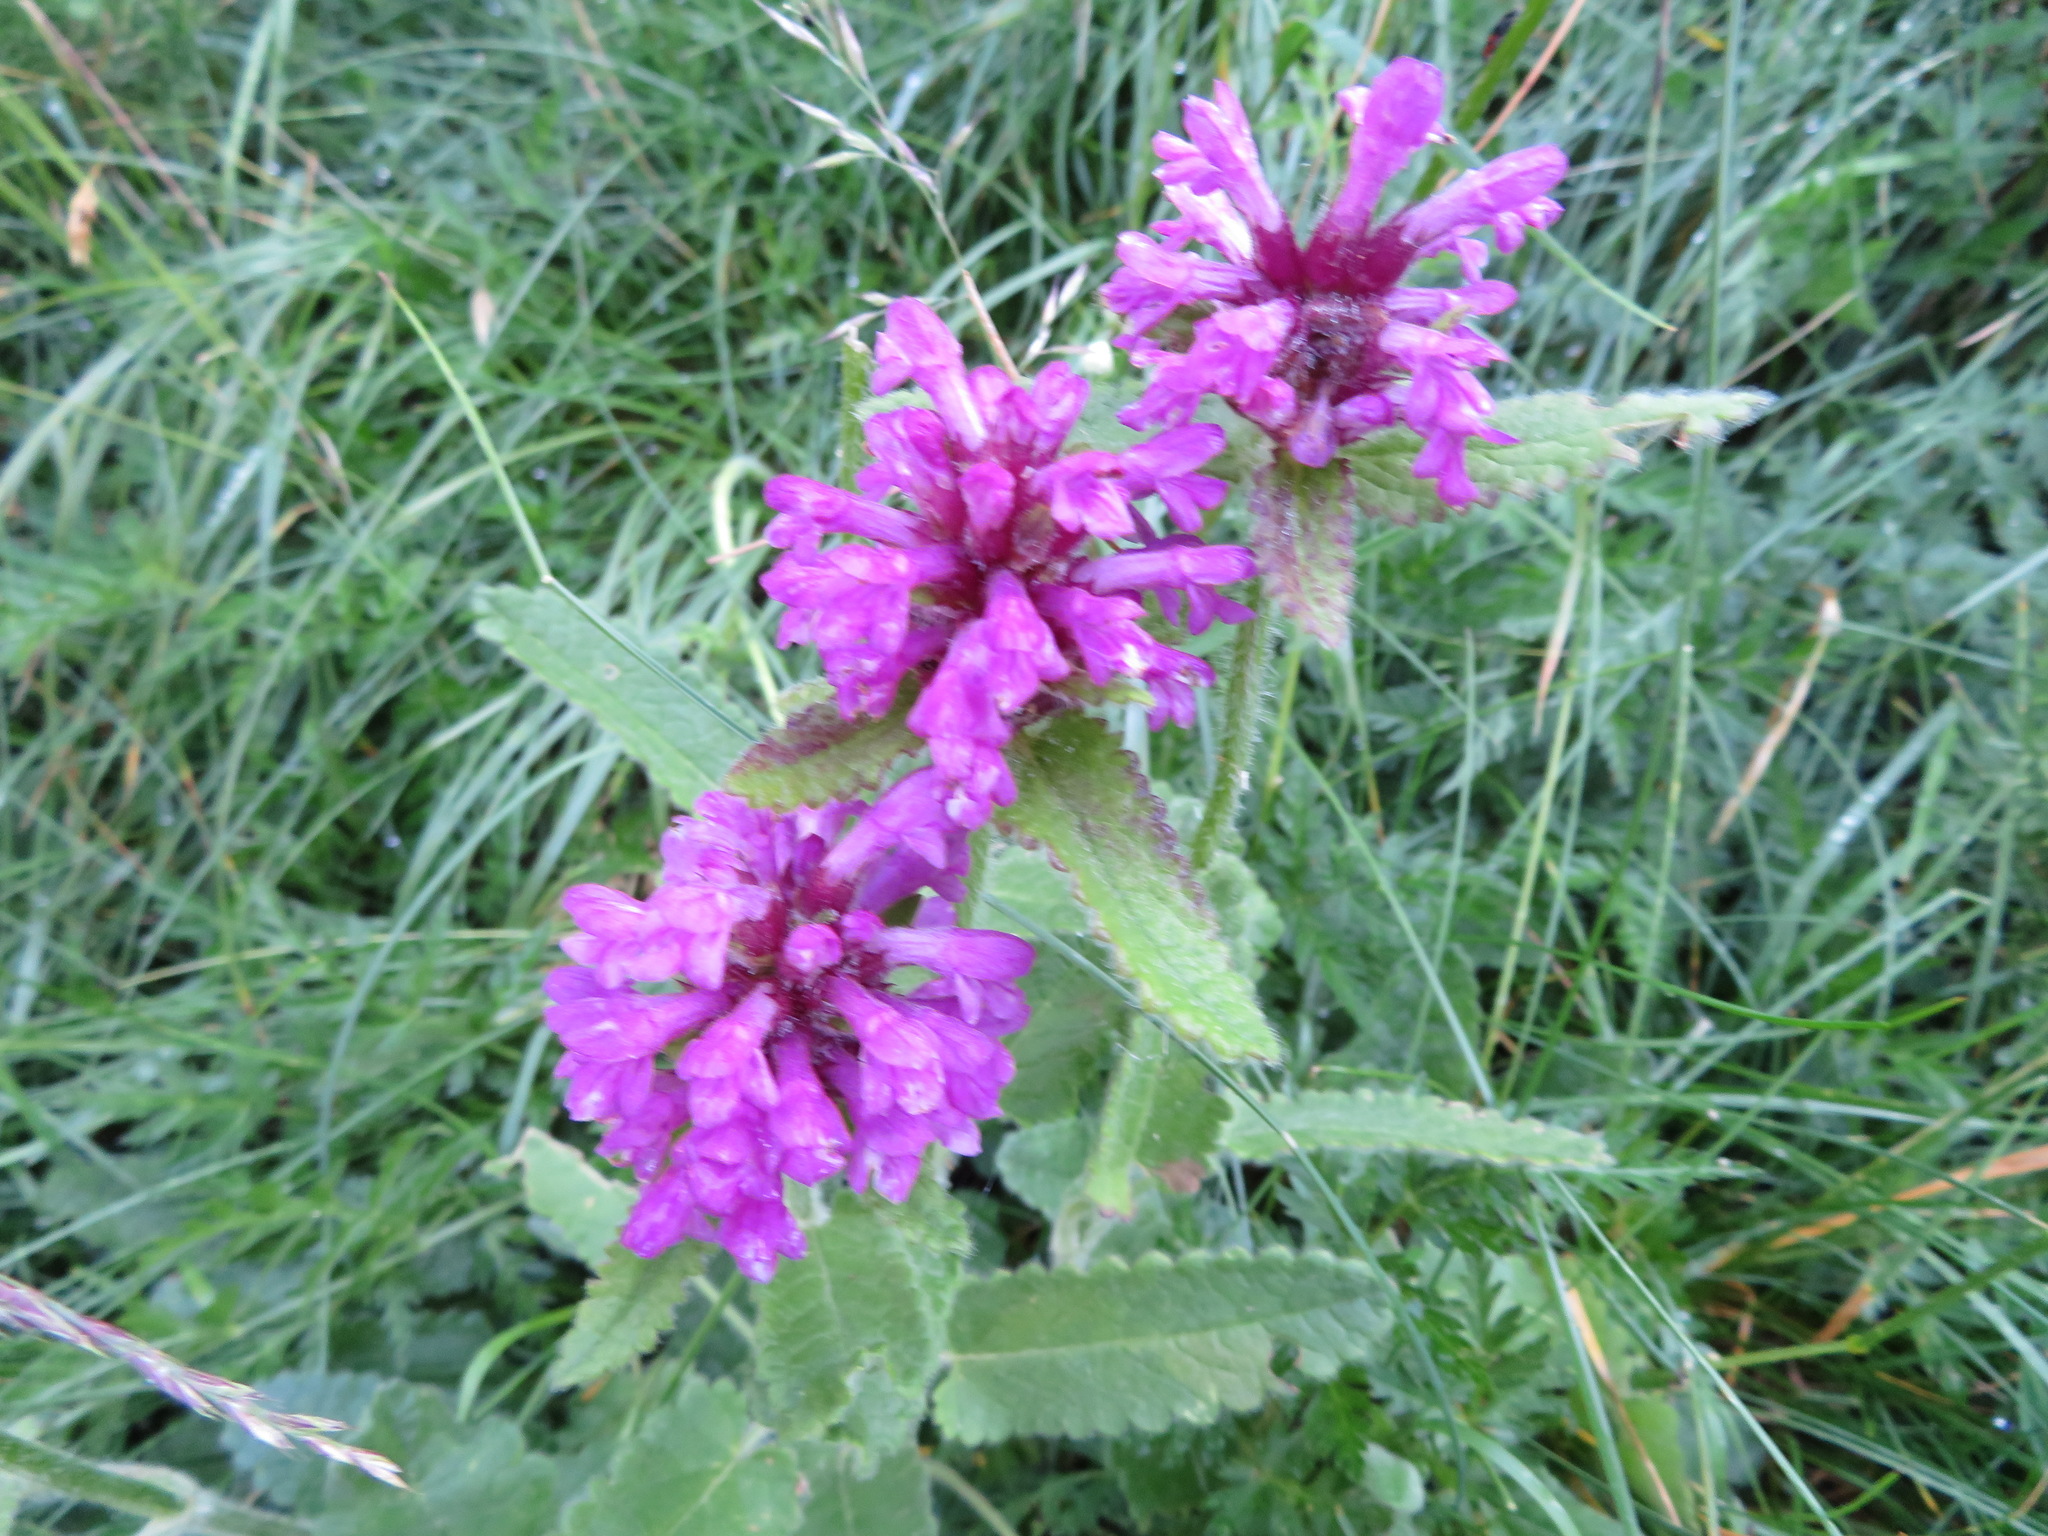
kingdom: Plantae
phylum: Tracheophyta
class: Magnoliopsida
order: Lamiales
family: Lamiaceae
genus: Betonica
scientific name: Betonica hirsuta
